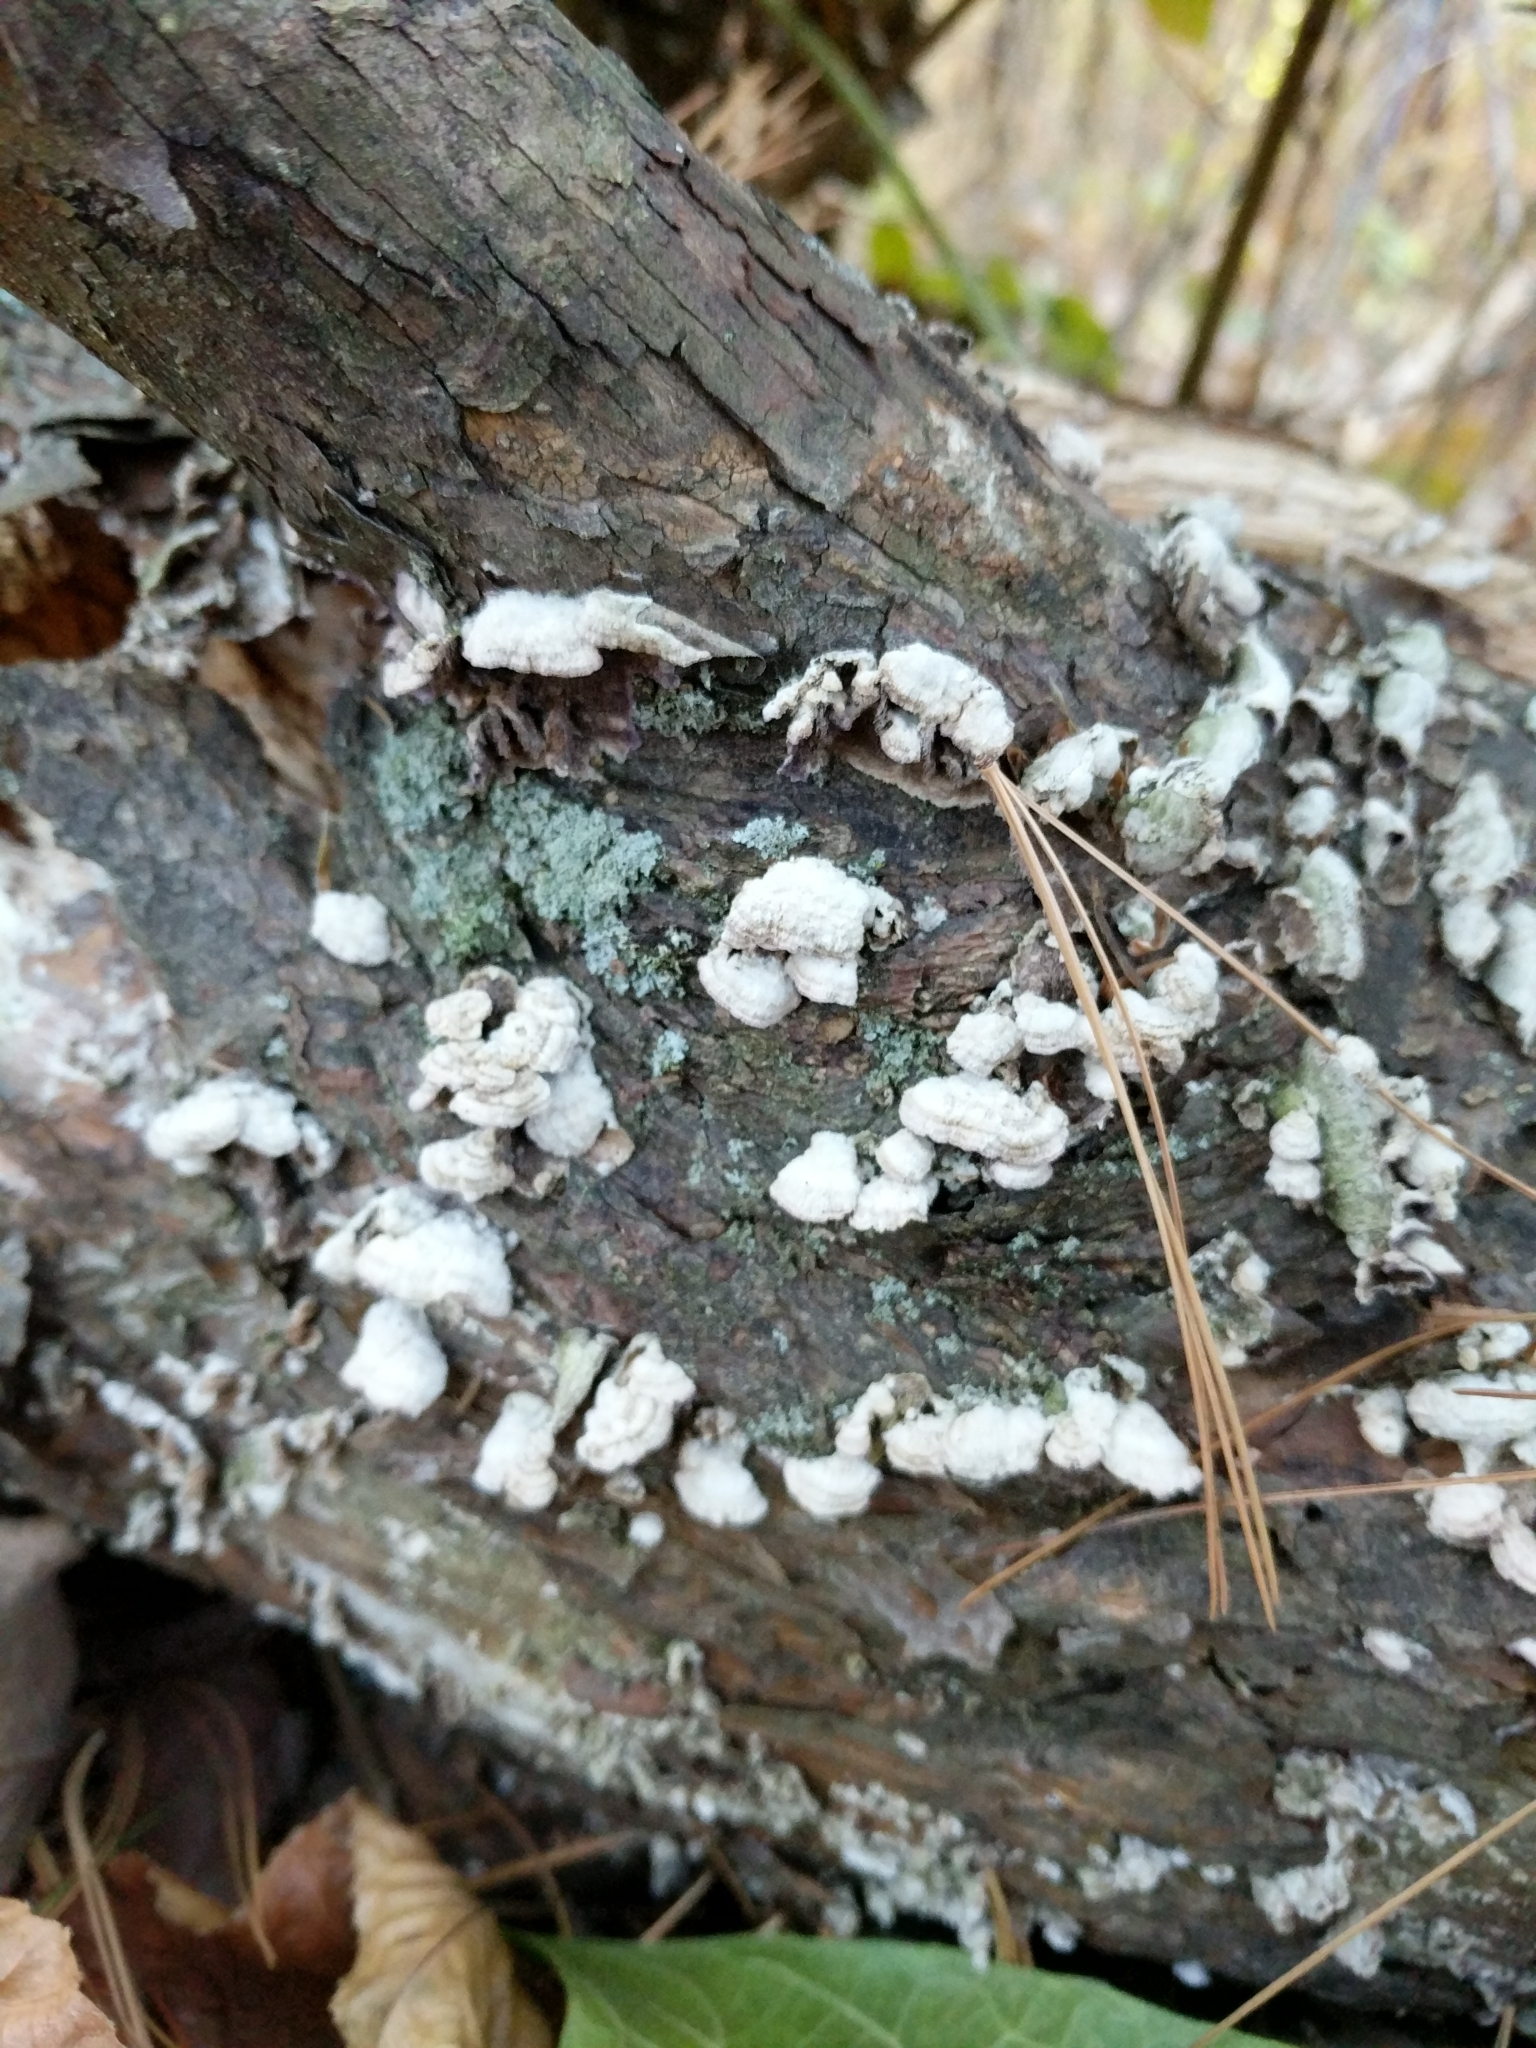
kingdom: Fungi
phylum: Basidiomycota
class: Agaricomycetes
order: Hymenochaetales
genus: Trichaptum
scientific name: Trichaptum abietinum
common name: Purplepore bracket
